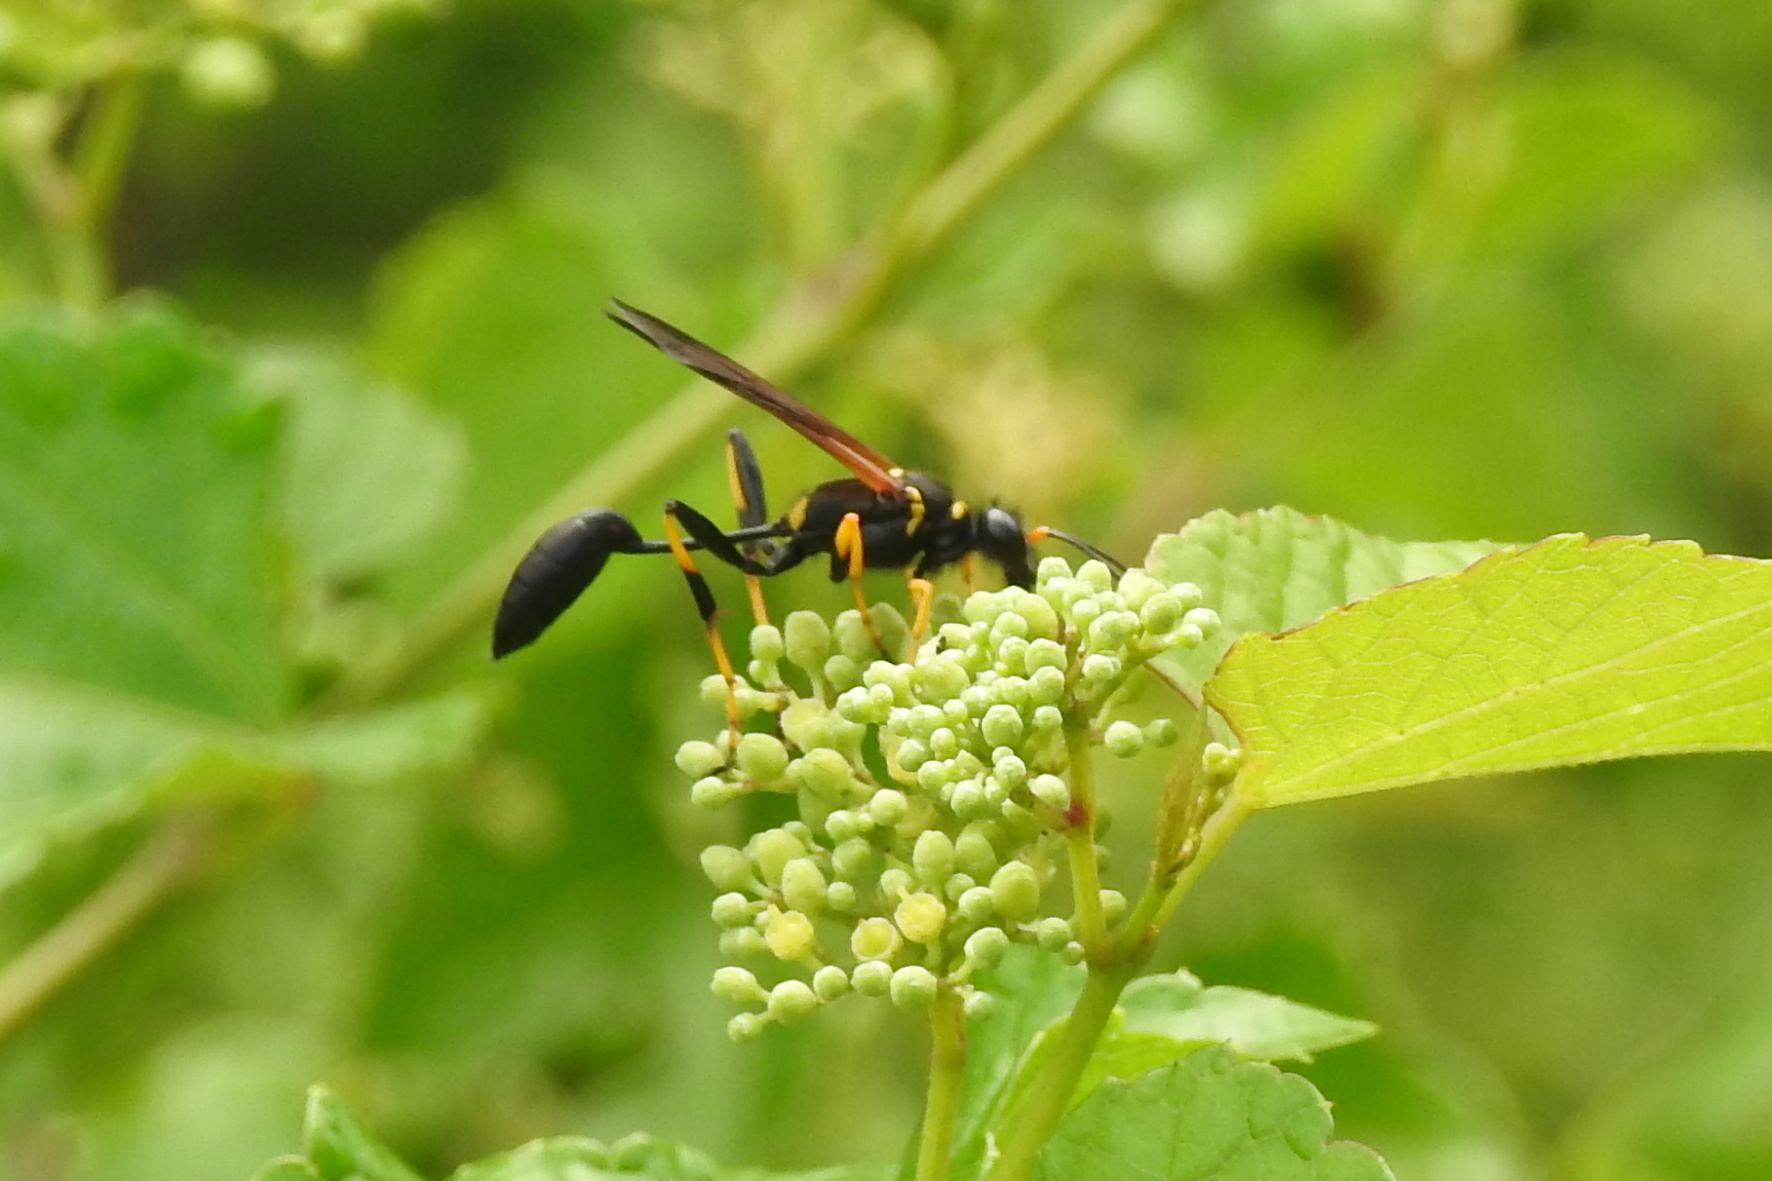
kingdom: Animalia
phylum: Arthropoda
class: Insecta
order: Hymenoptera
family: Sphecidae
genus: Sceliphron
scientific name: Sceliphron caementarium
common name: Mud dauber
